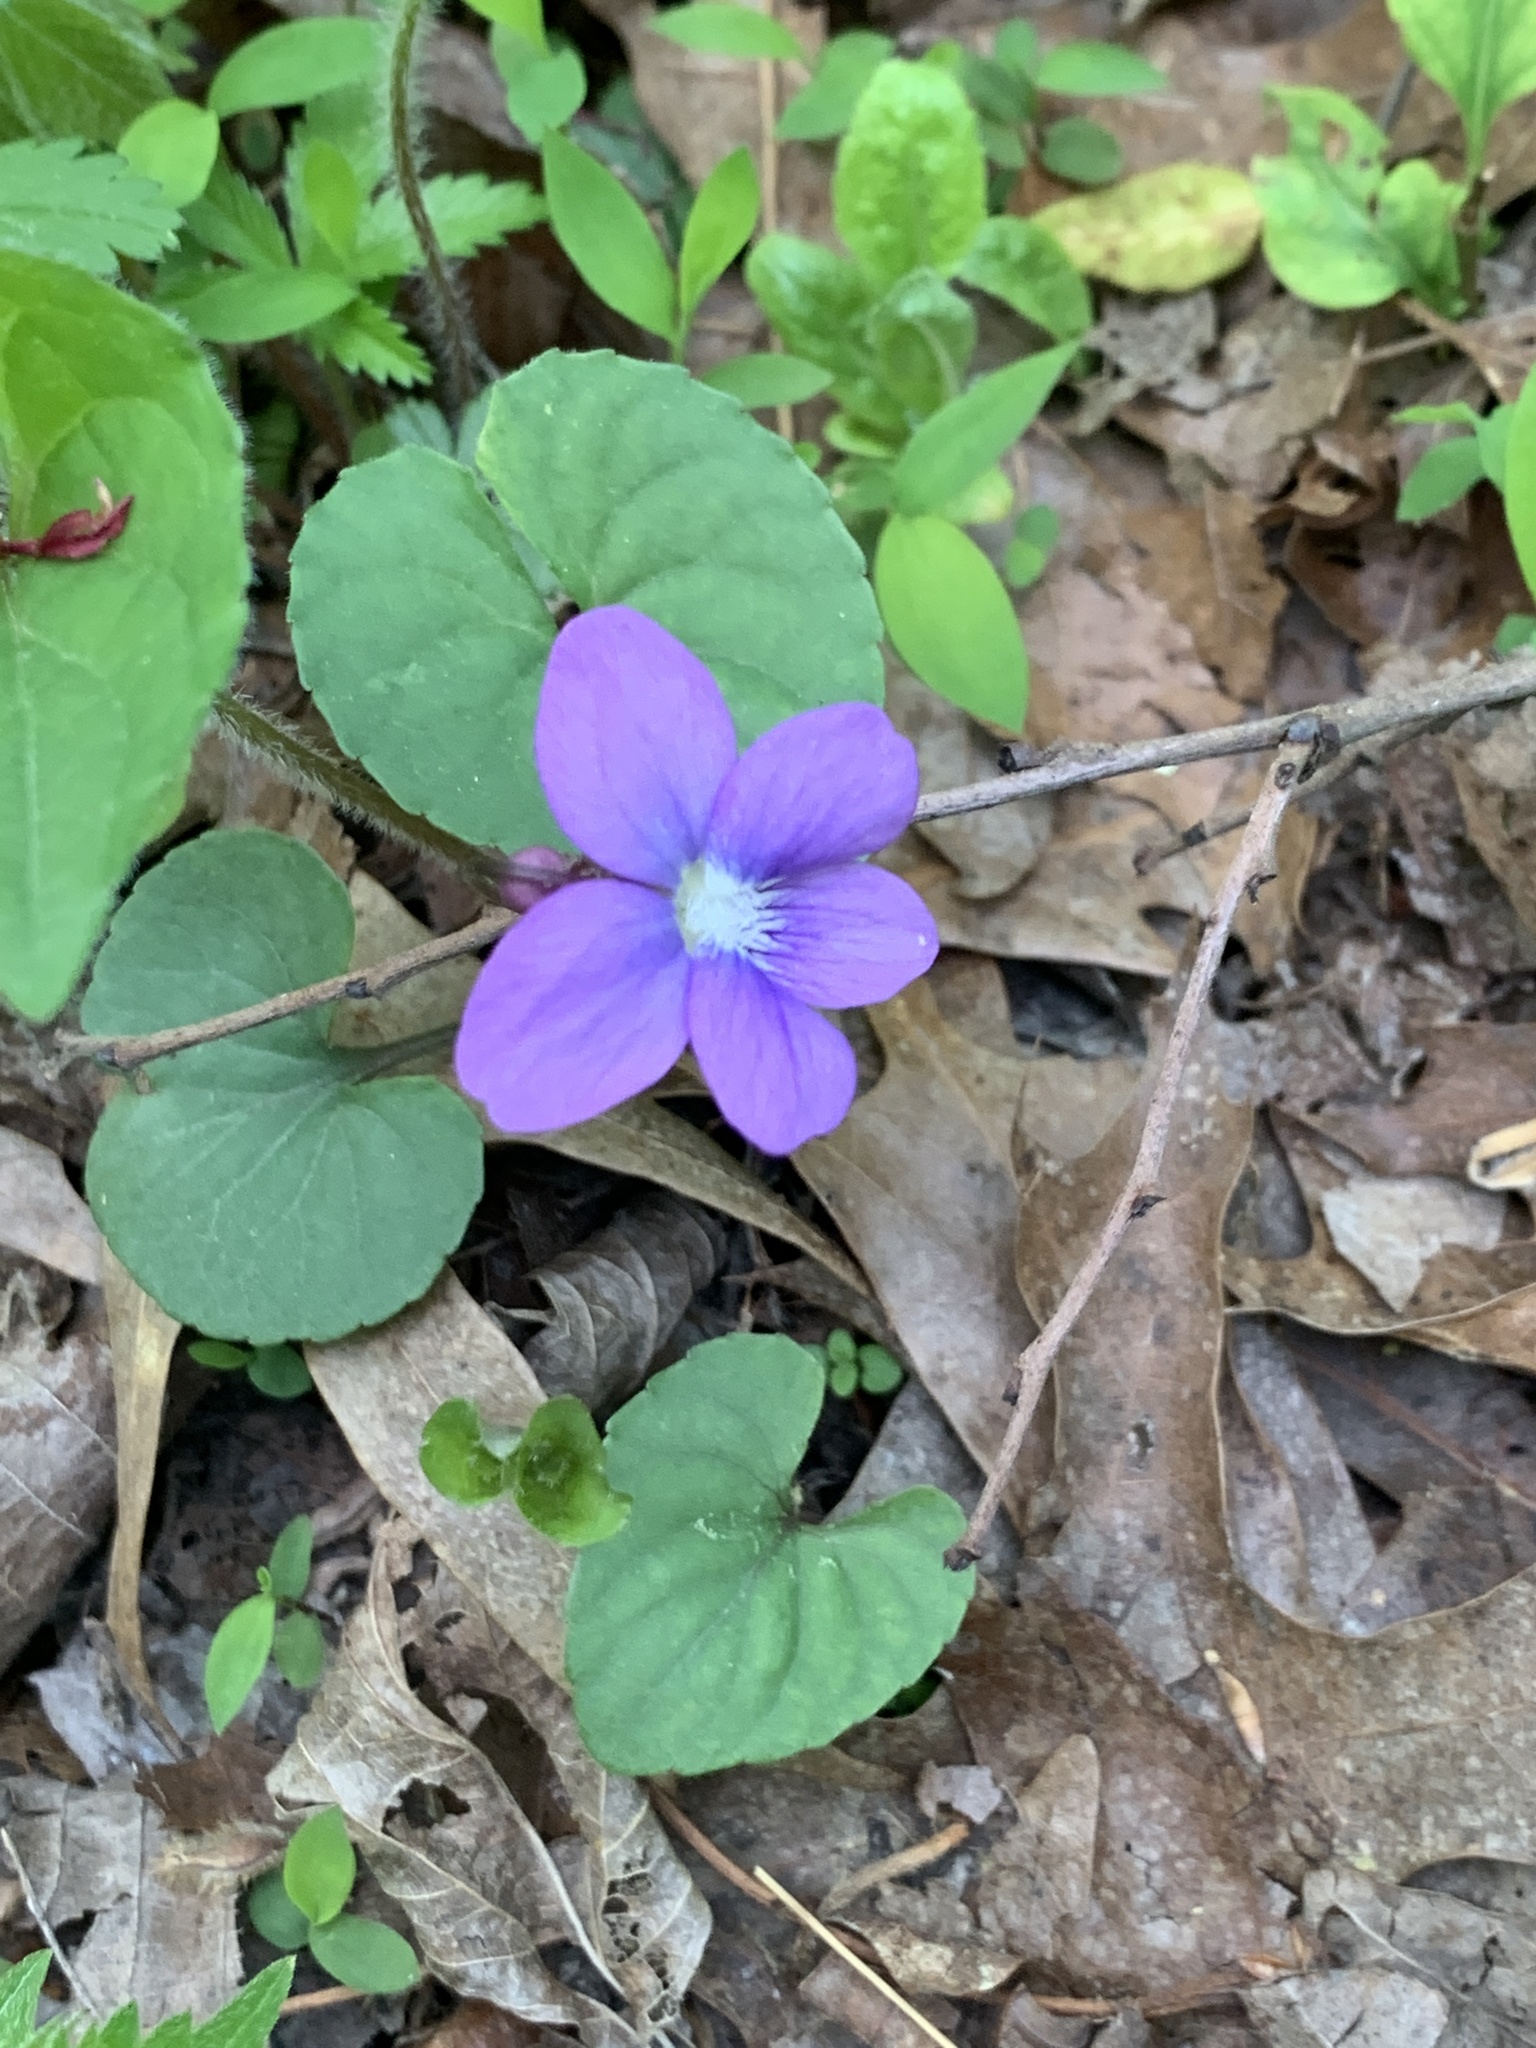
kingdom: Plantae
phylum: Tracheophyta
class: Magnoliopsida
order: Malpighiales
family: Violaceae
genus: Viola
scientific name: Viola sororia
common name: Dooryard violet
